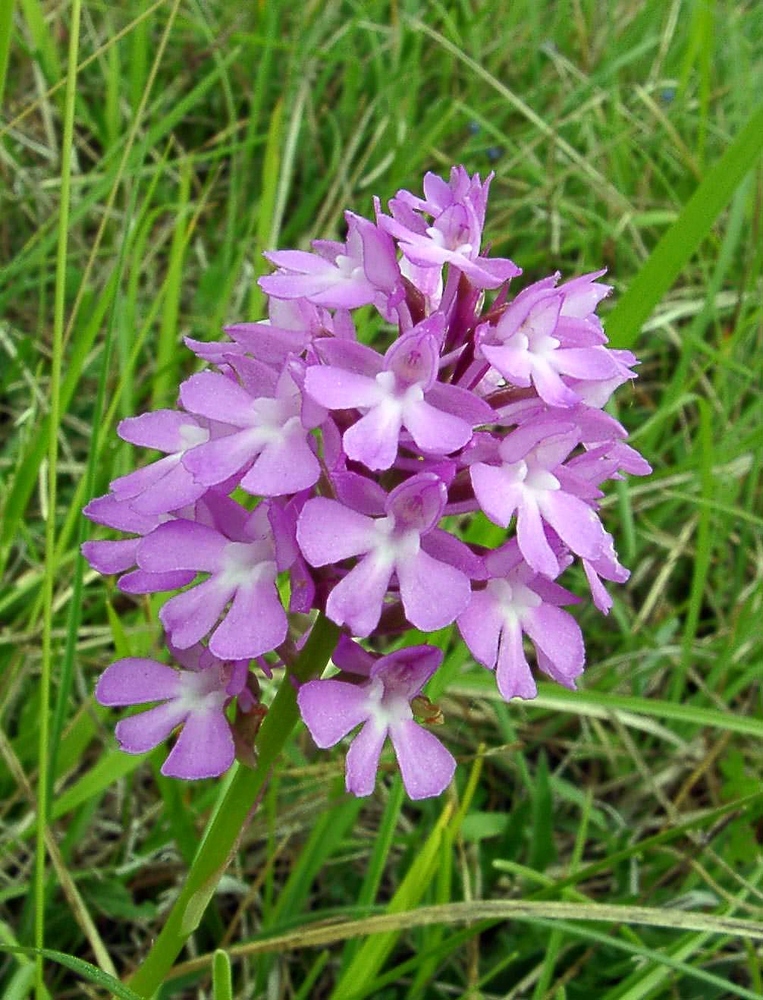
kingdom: Plantae
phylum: Tracheophyta
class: Liliopsida
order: Asparagales
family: Orchidaceae
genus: Anacamptis
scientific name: Anacamptis pyramidalis
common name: Pyramidal orchid
